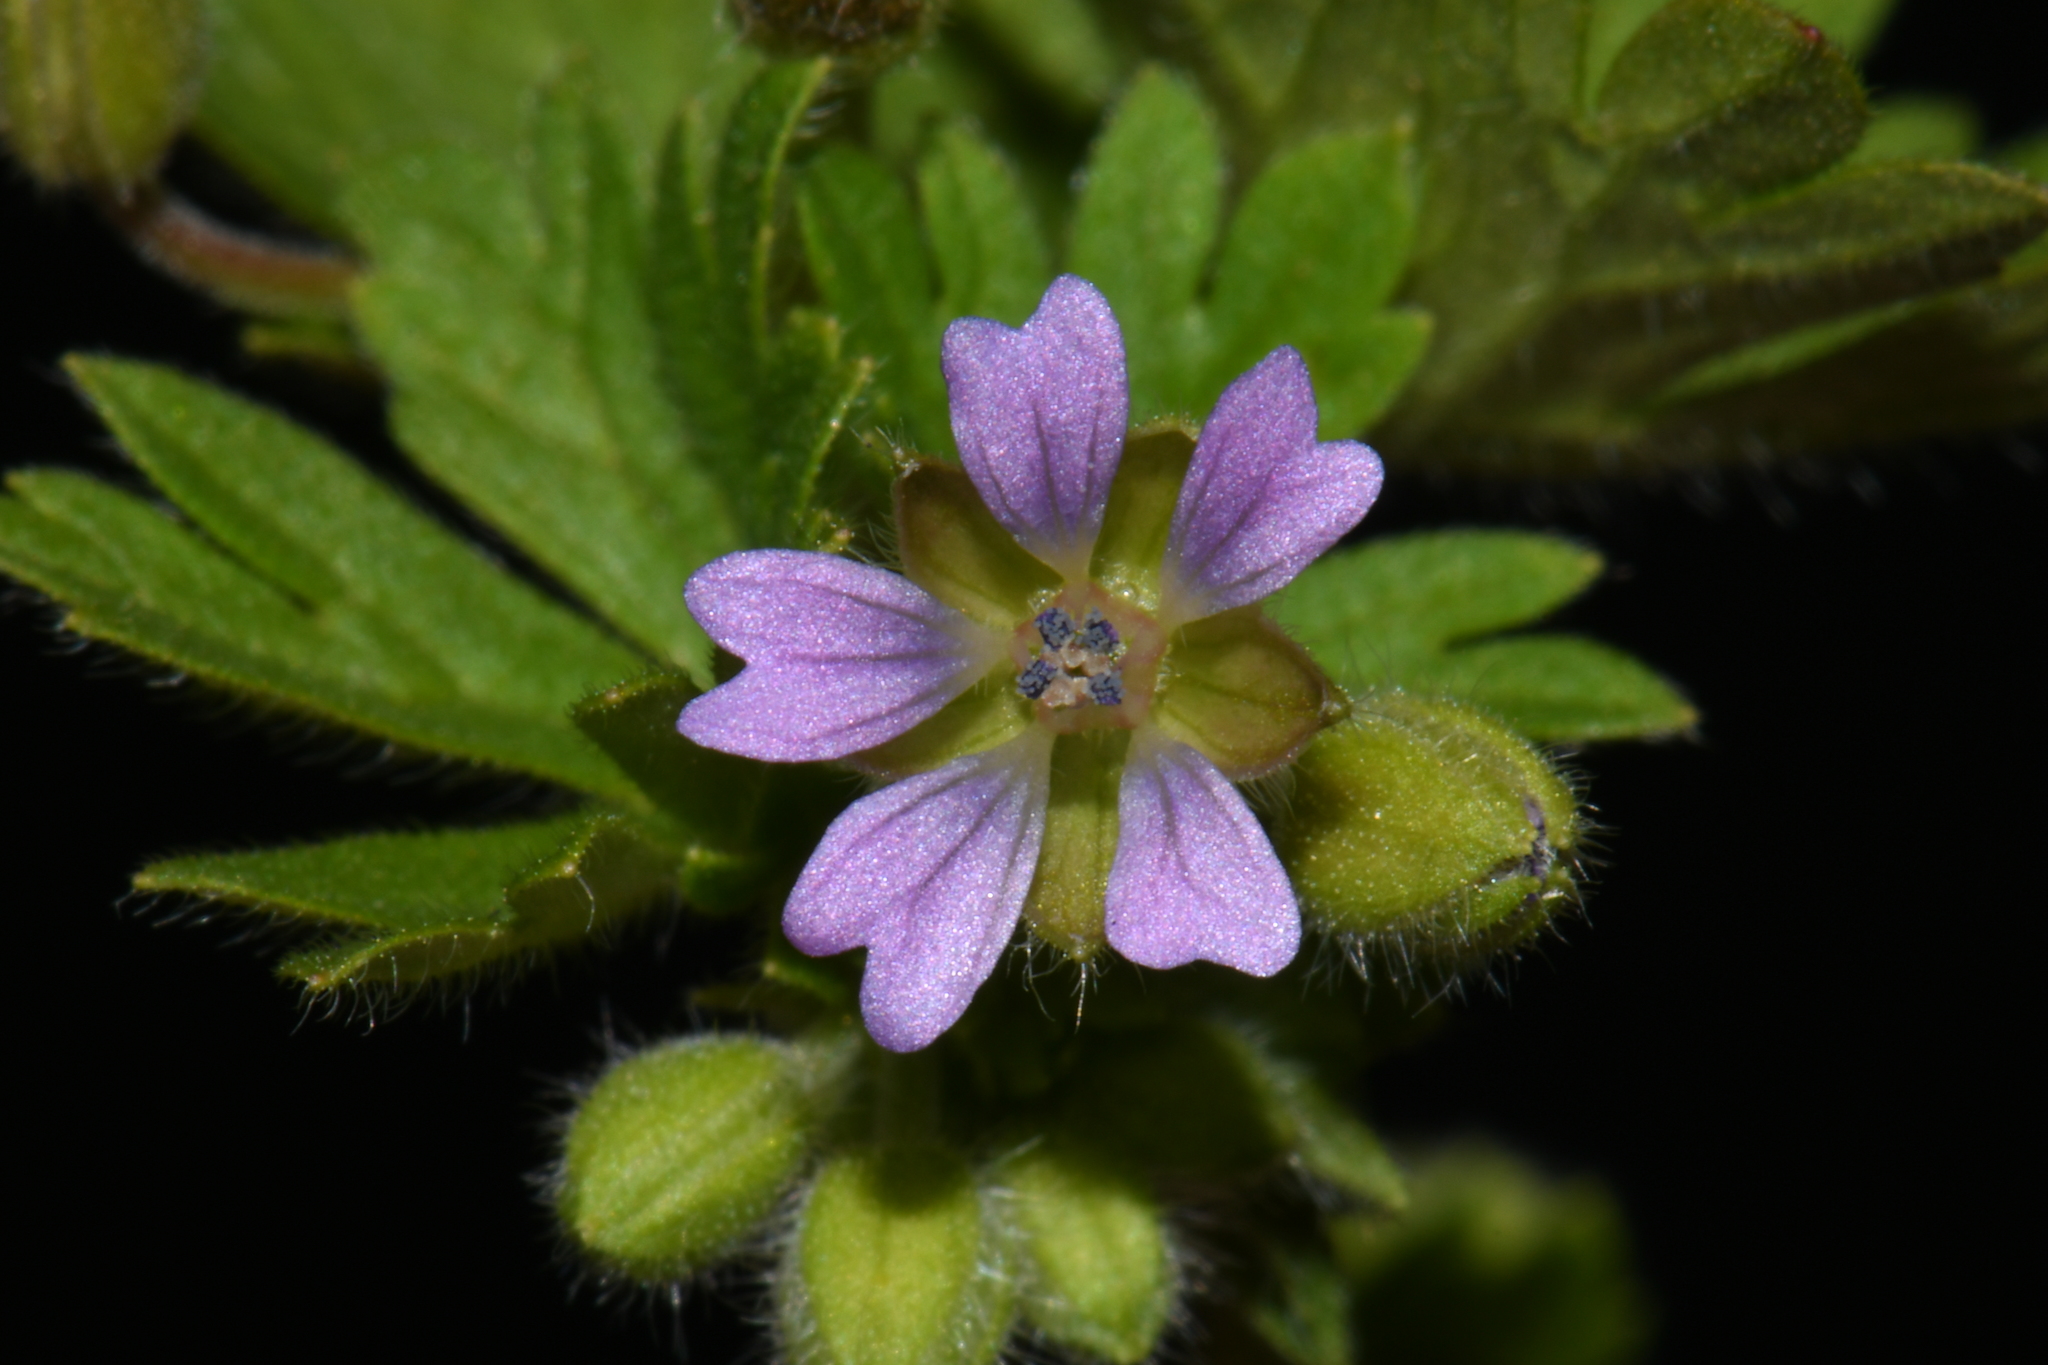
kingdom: Plantae
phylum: Tracheophyta
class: Magnoliopsida
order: Geraniales
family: Geraniaceae
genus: Geranium
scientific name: Geranium pusillum
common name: Small geranium
